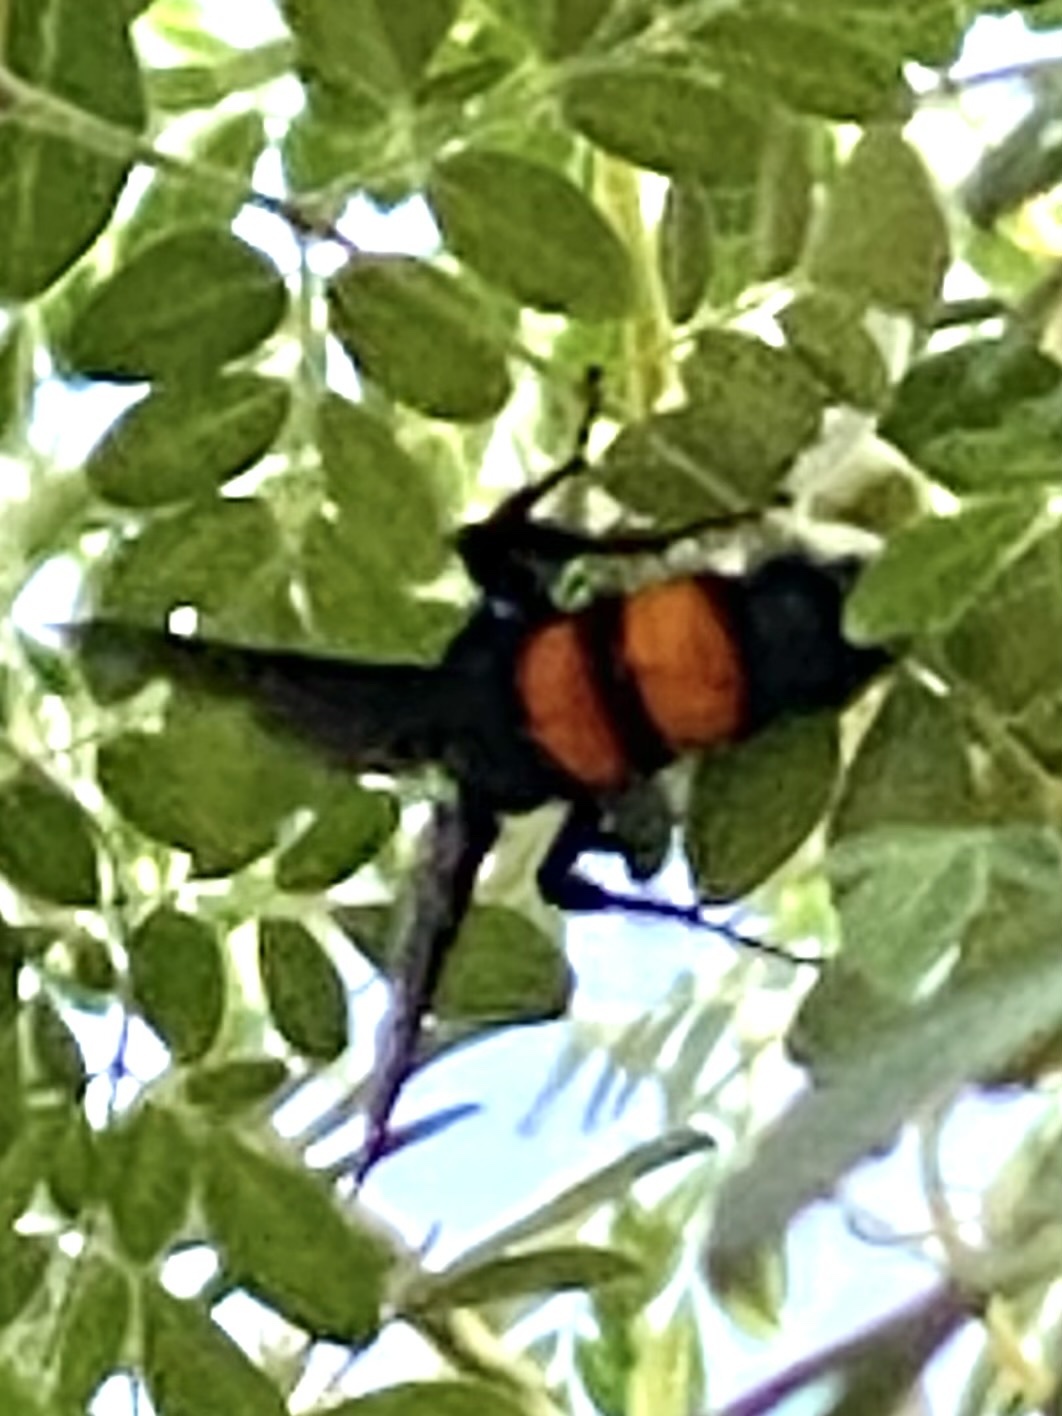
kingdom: Animalia
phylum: Arthropoda
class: Insecta
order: Hymenoptera
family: Scoliidae
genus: Pygodasis
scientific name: Pygodasis ephippium
